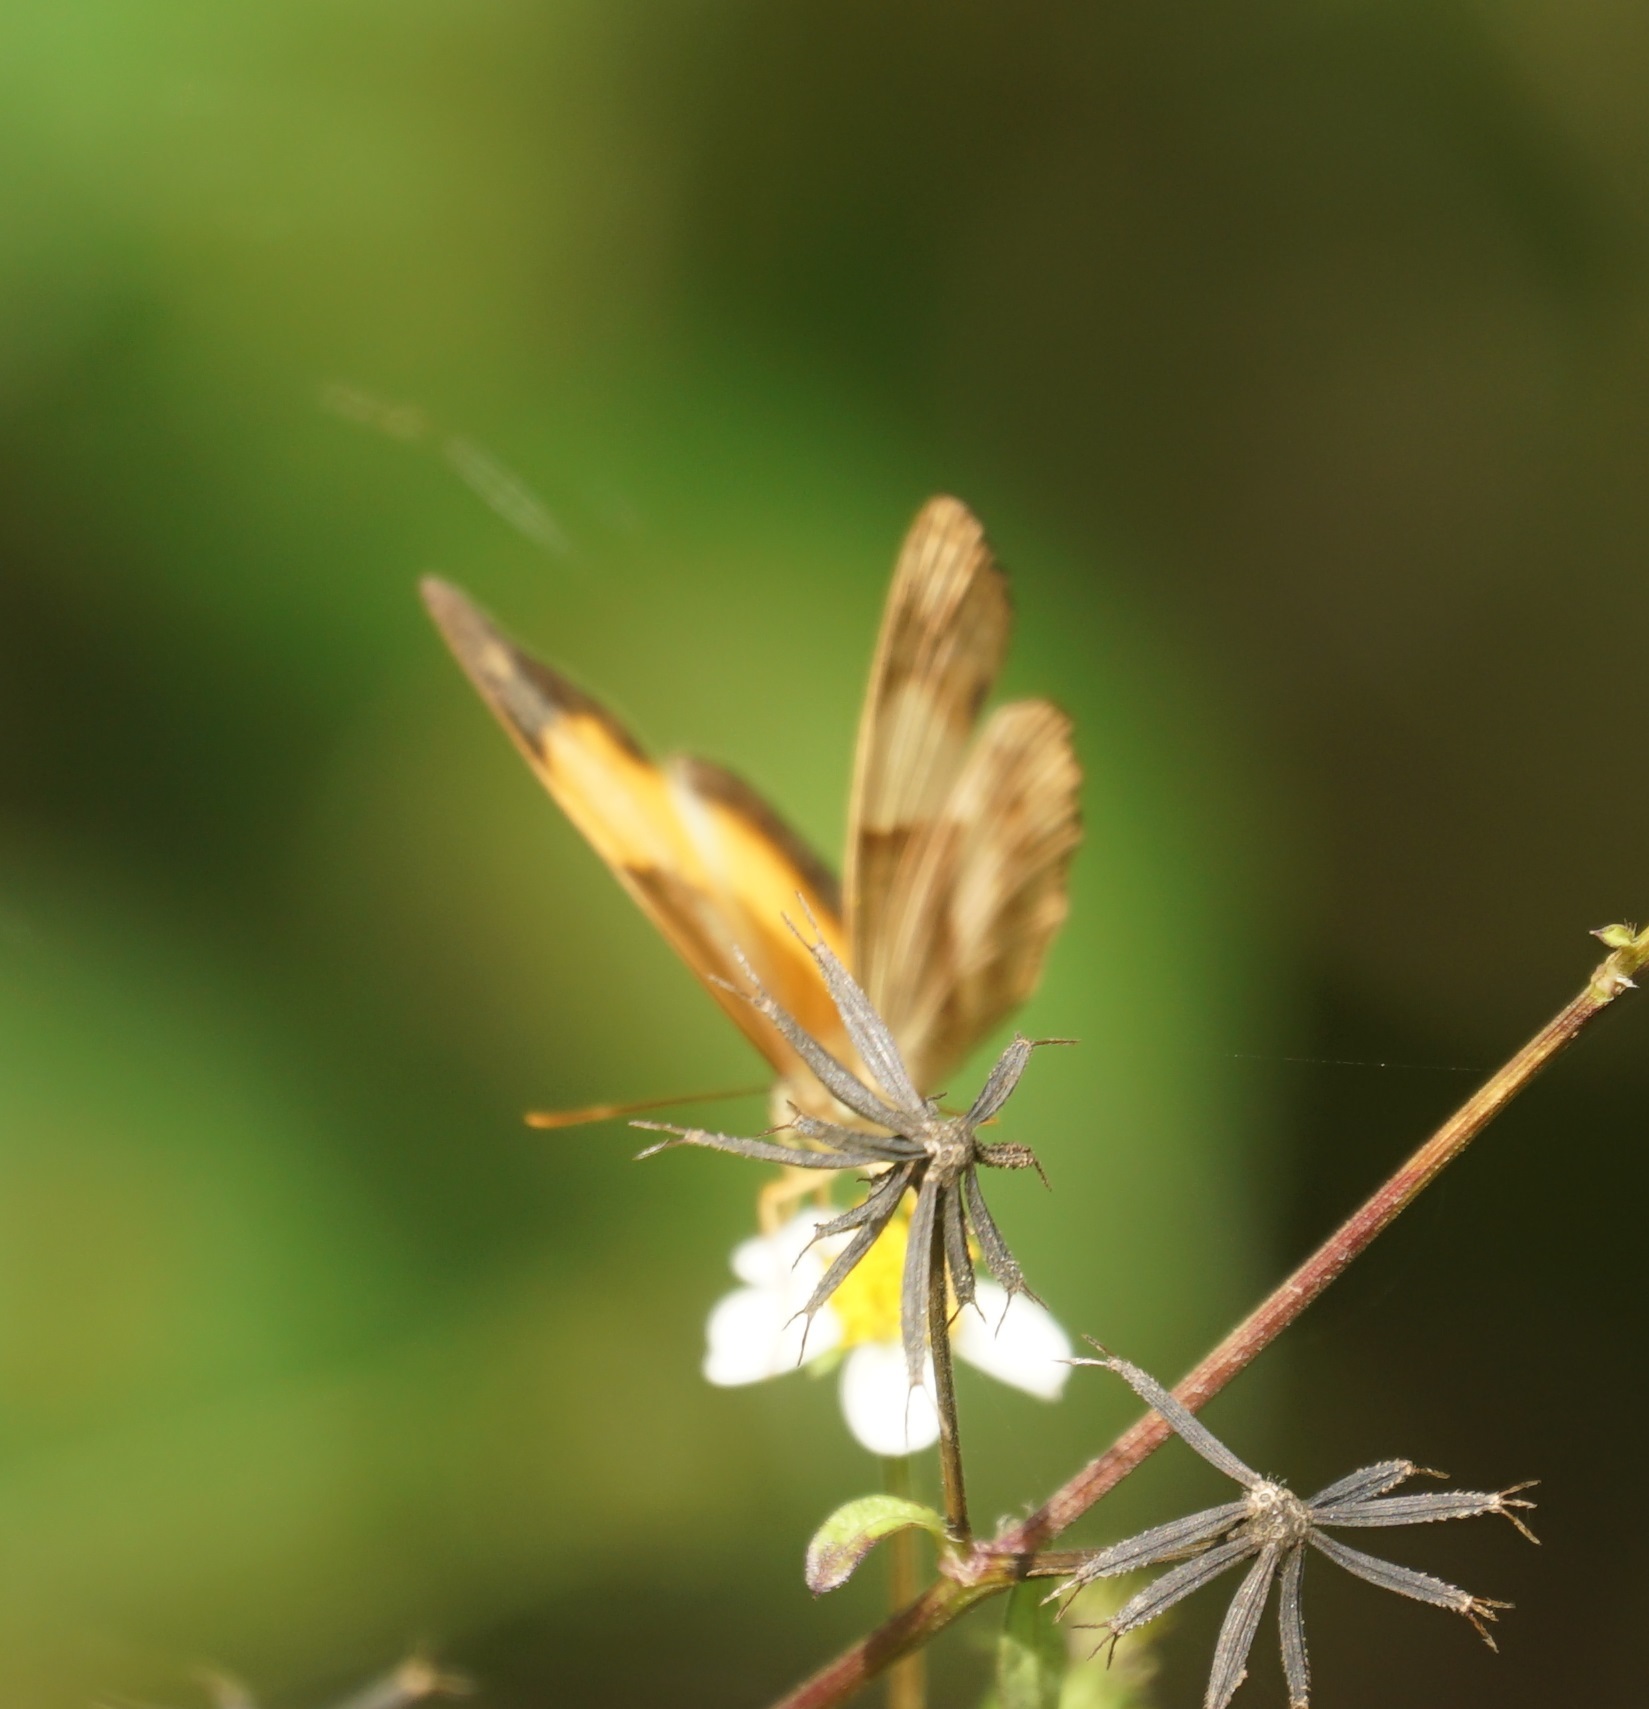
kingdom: Animalia
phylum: Arthropoda
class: Insecta
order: Lepidoptera
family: Nymphalidae
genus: Cupha
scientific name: Cupha prosope
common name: Bordered rustic
